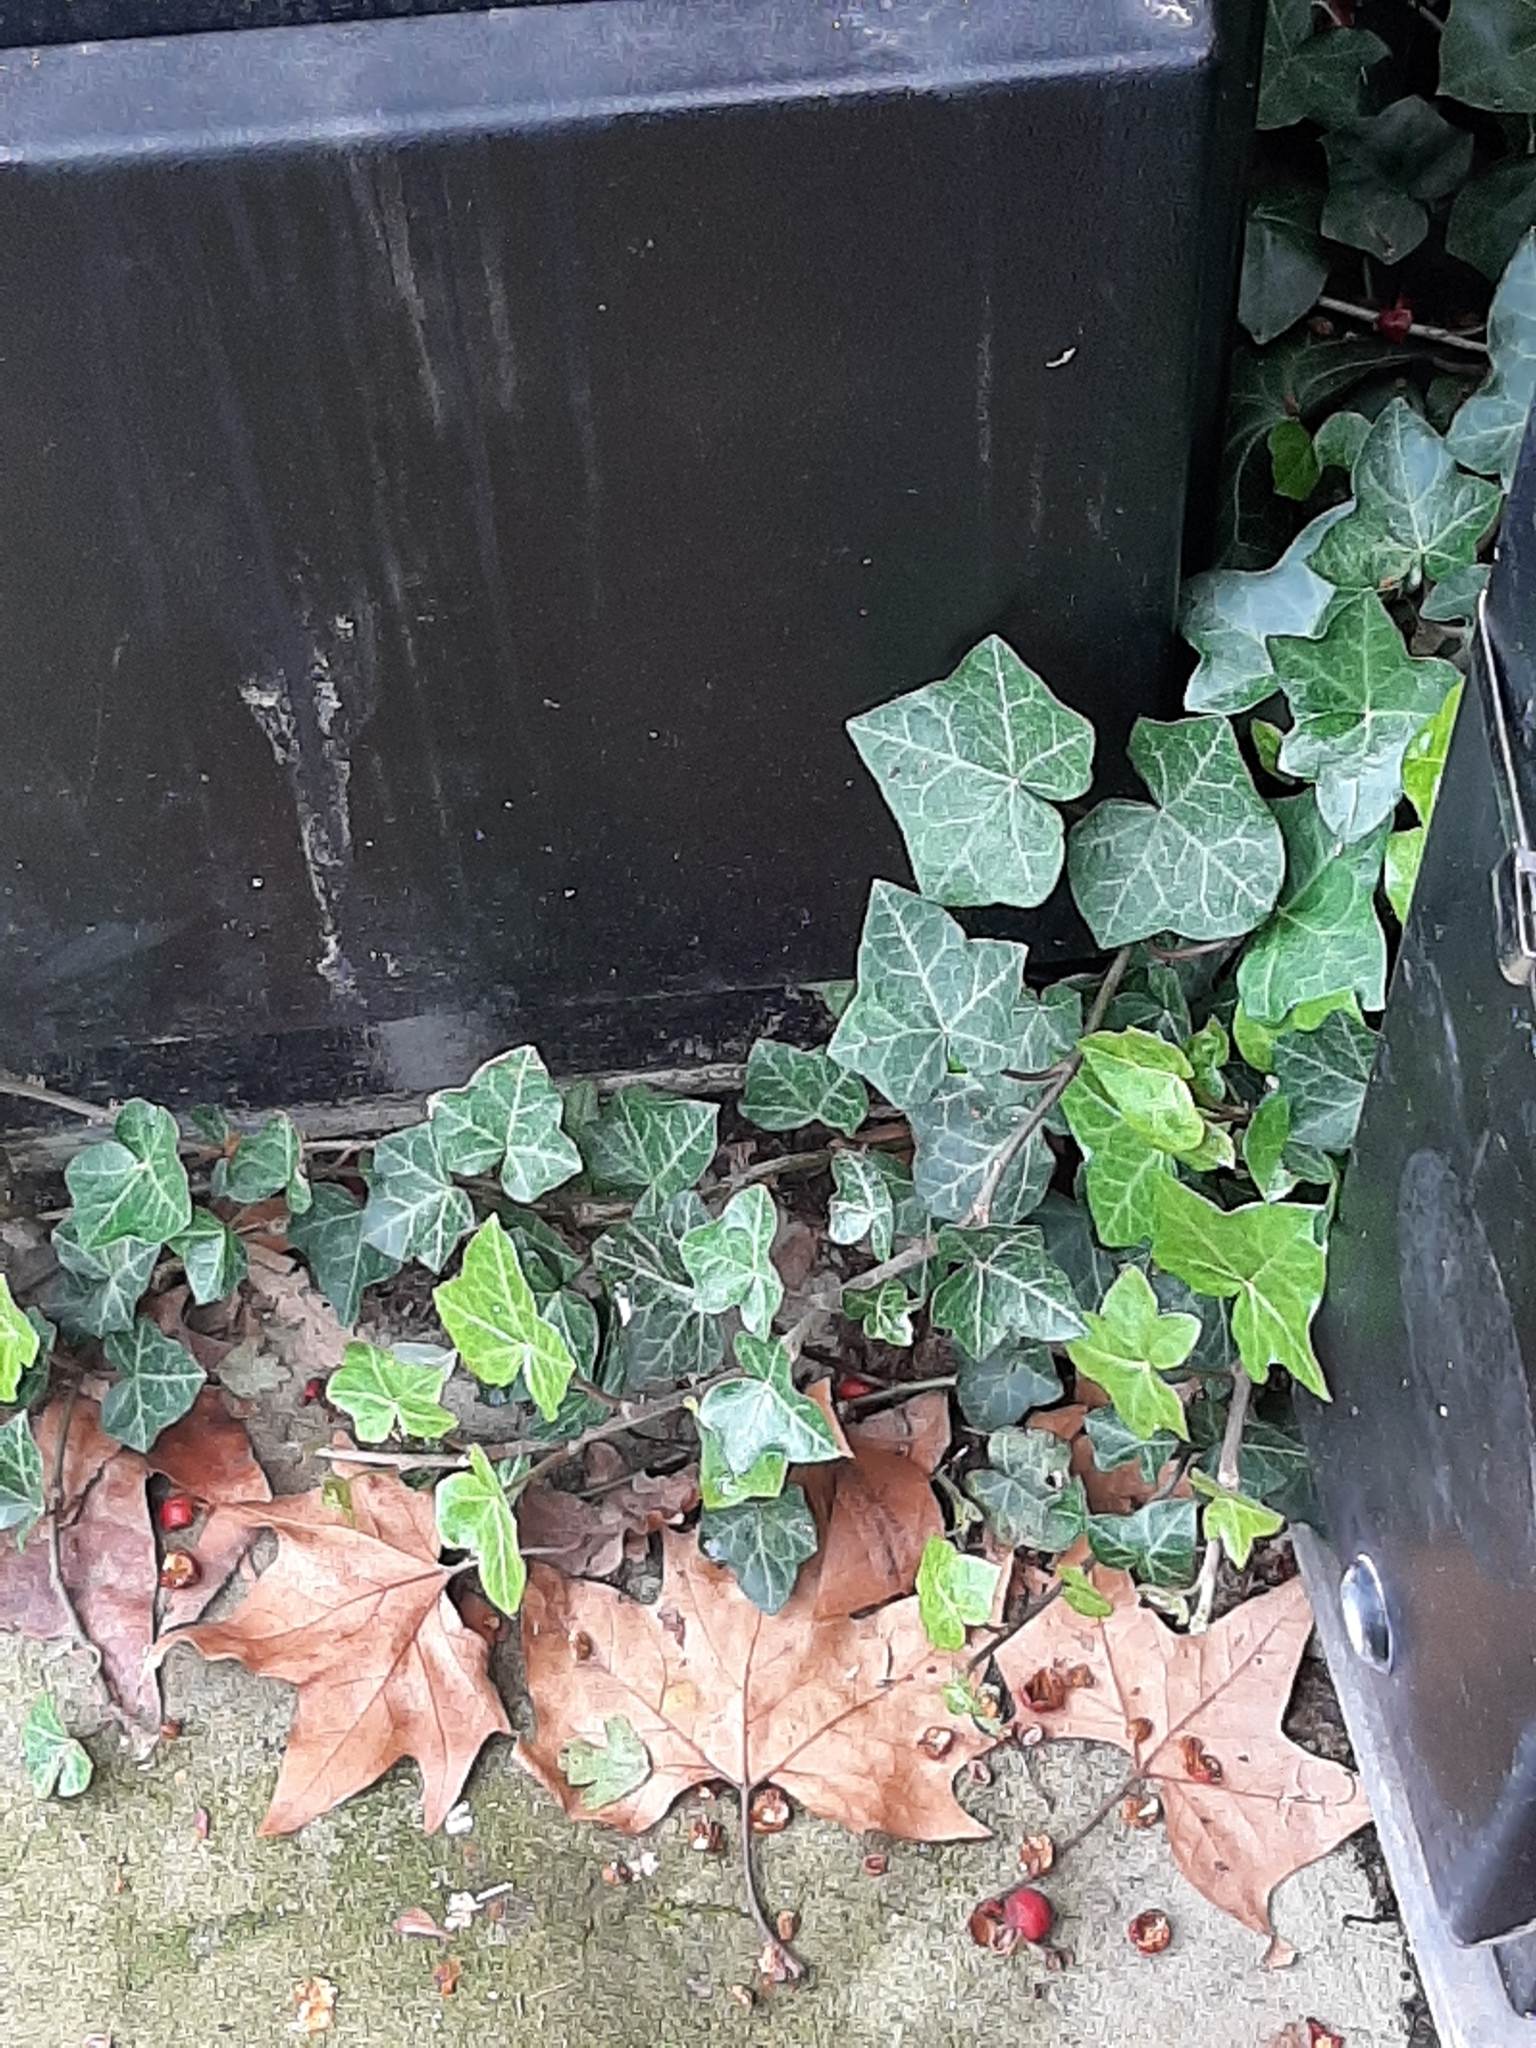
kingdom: Plantae
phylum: Tracheophyta
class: Magnoliopsida
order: Apiales
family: Araliaceae
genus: Hedera
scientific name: Hedera helix
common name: Ivy
